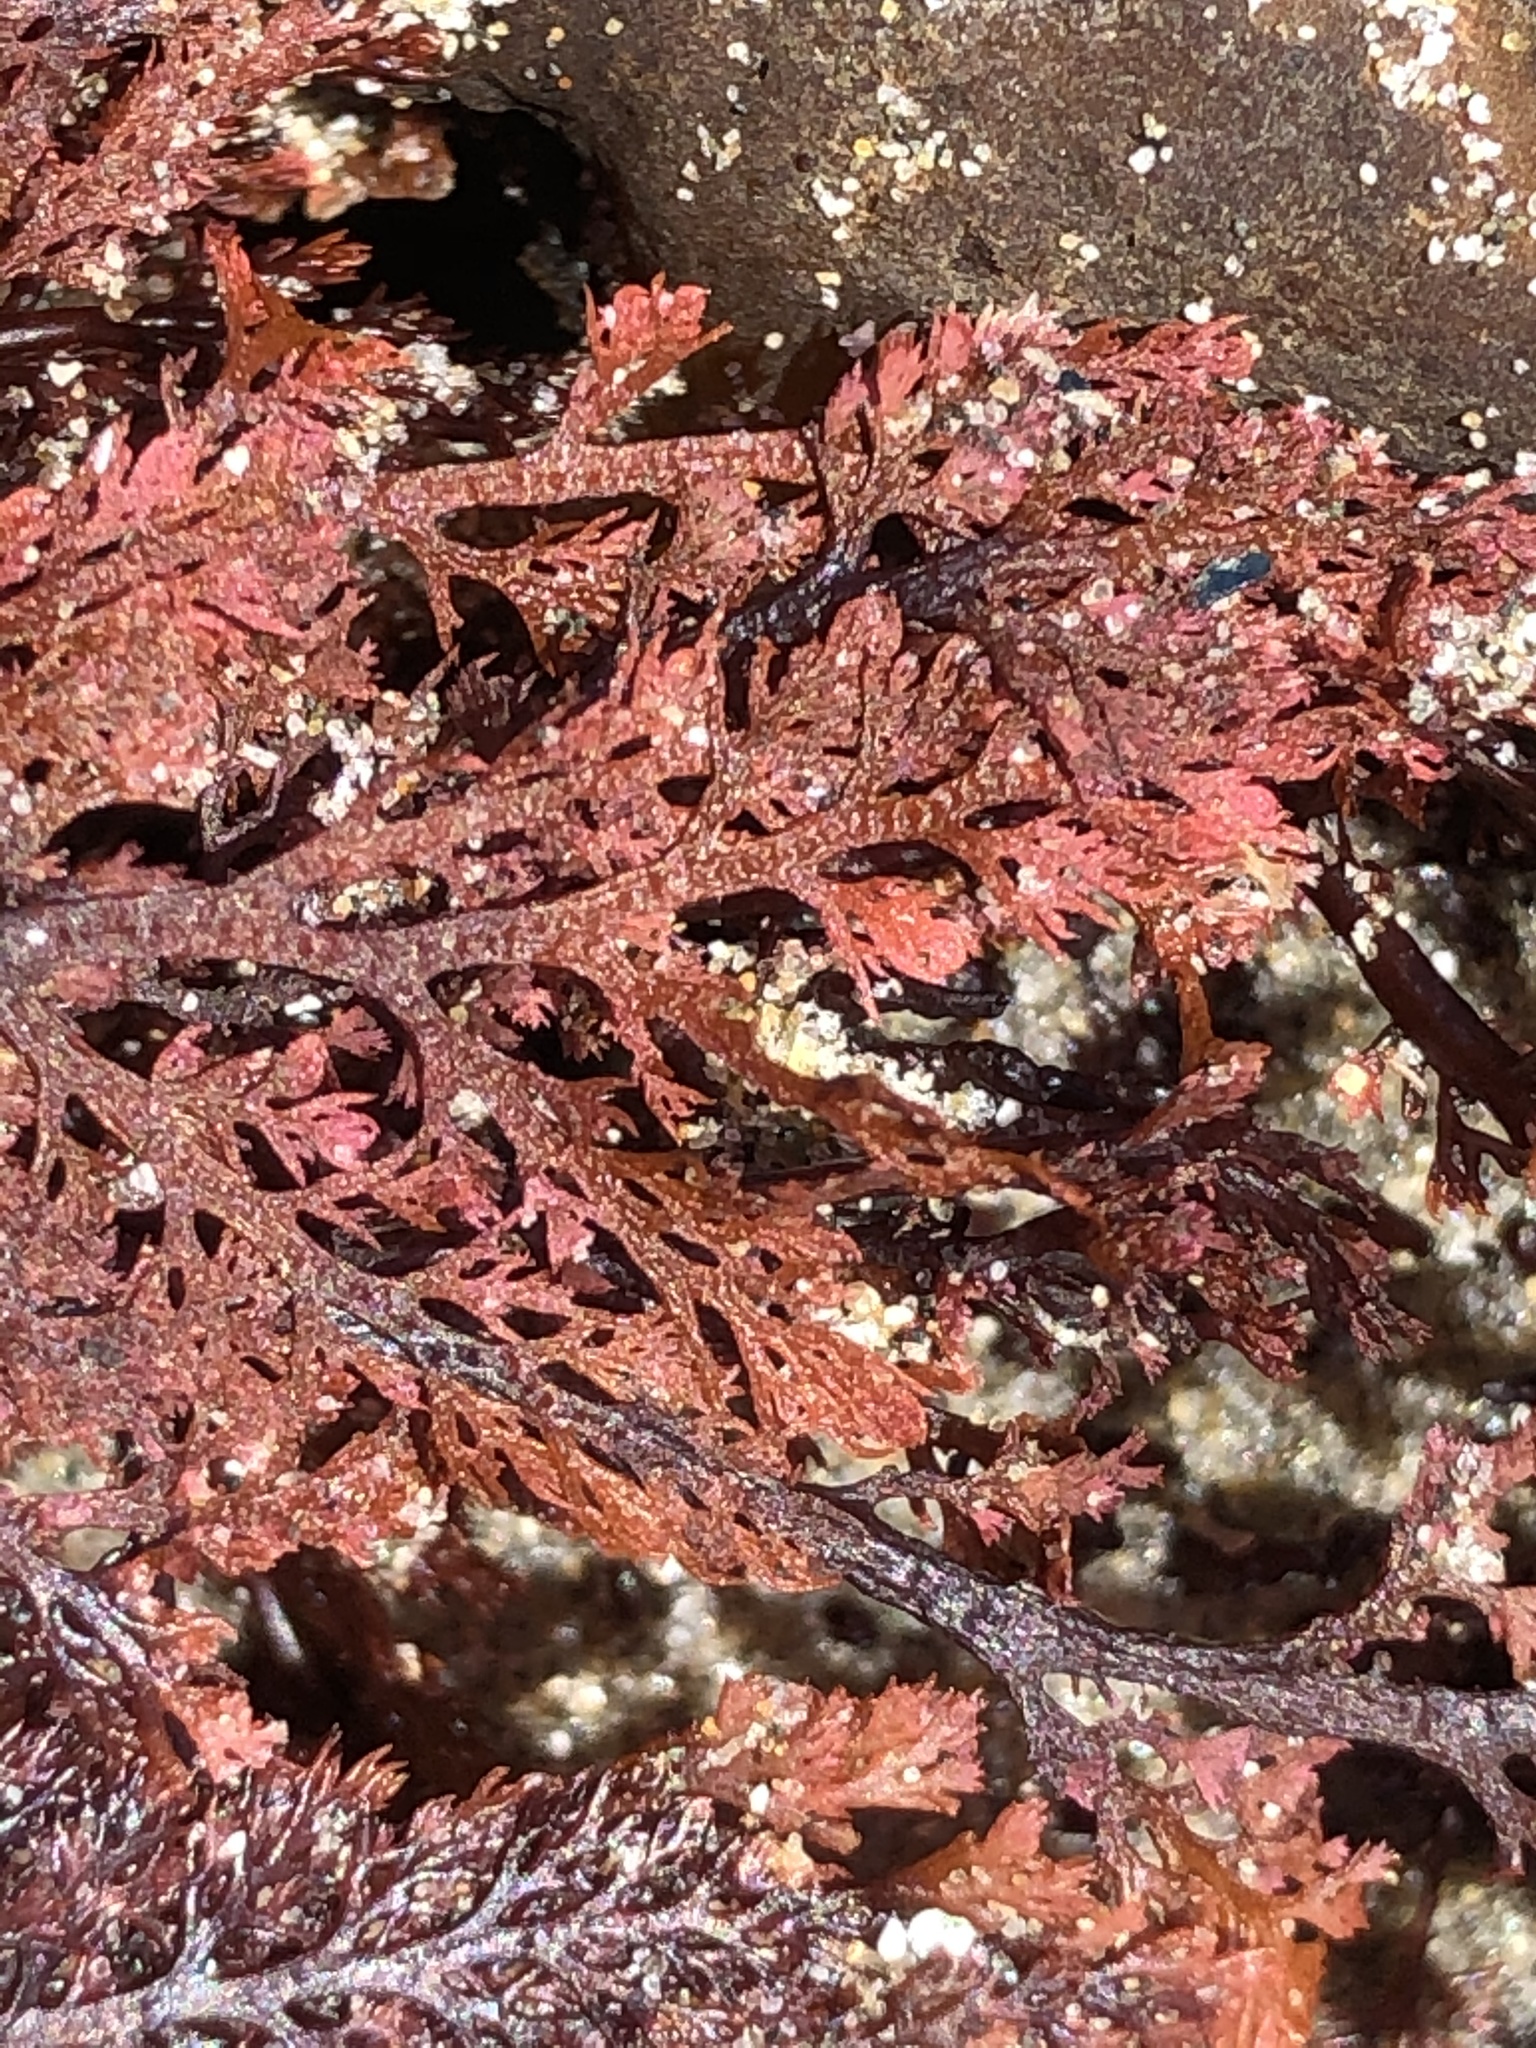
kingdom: Plantae
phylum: Rhodophyta
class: Florideophyceae
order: Ceramiales
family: Ceramiaceae
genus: Microcladia
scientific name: Microcladia coulteri
